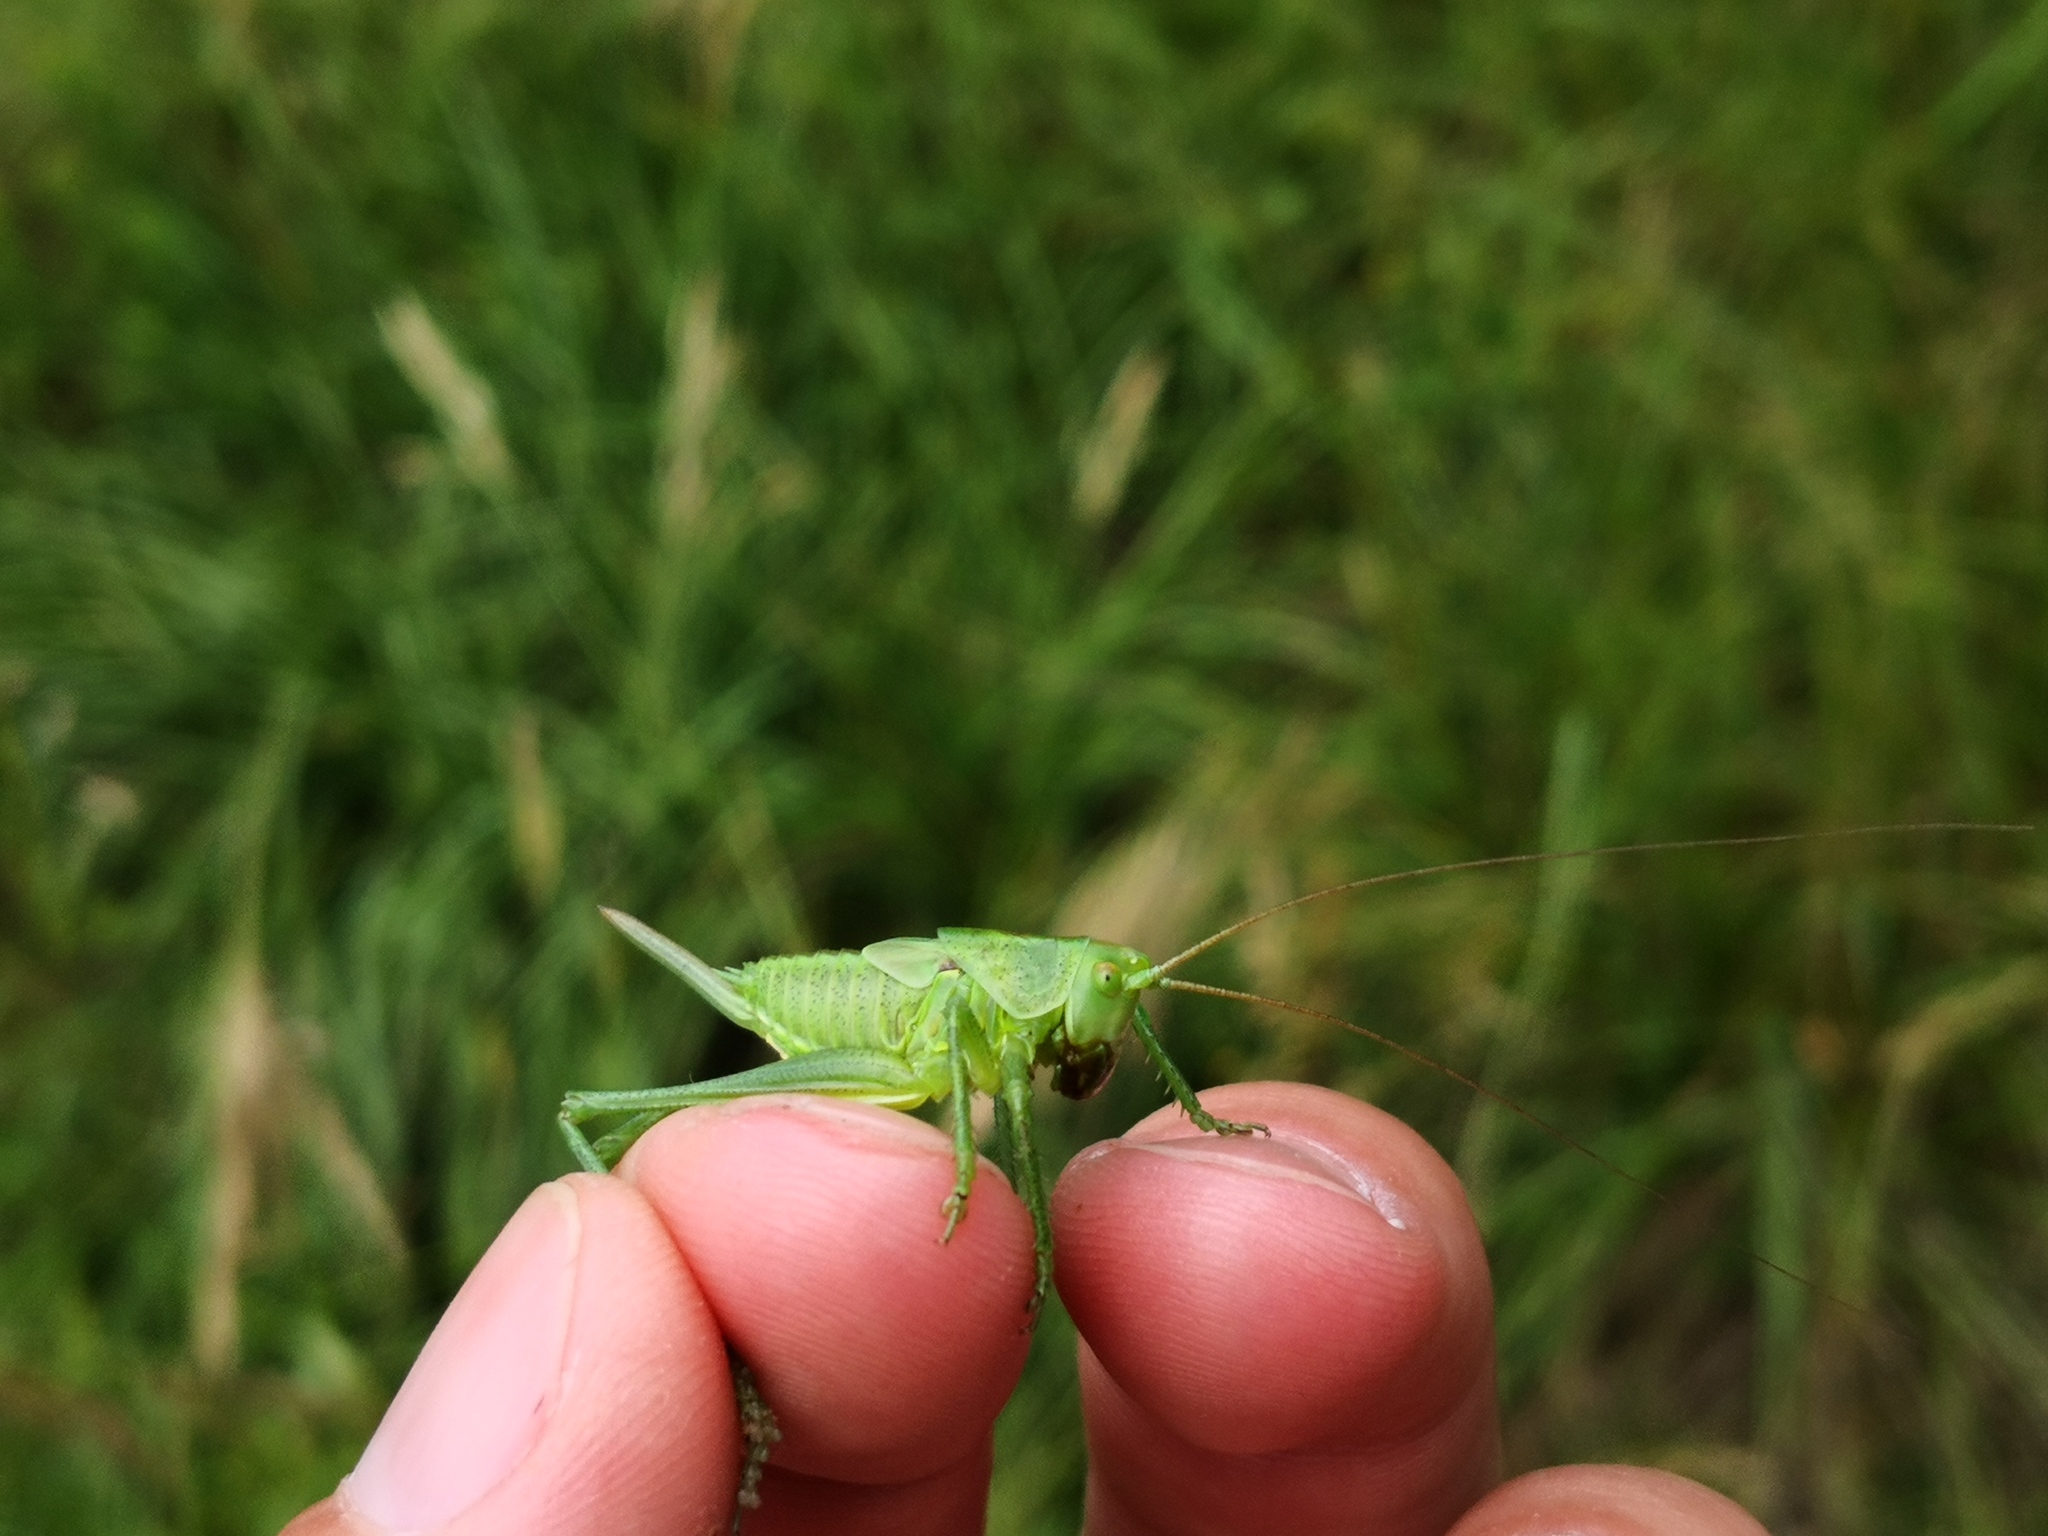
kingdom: Animalia
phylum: Arthropoda
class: Insecta
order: Orthoptera
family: Tettigoniidae
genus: Tettigonia
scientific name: Tettigonia viridissima
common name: Great green bush-cricket
